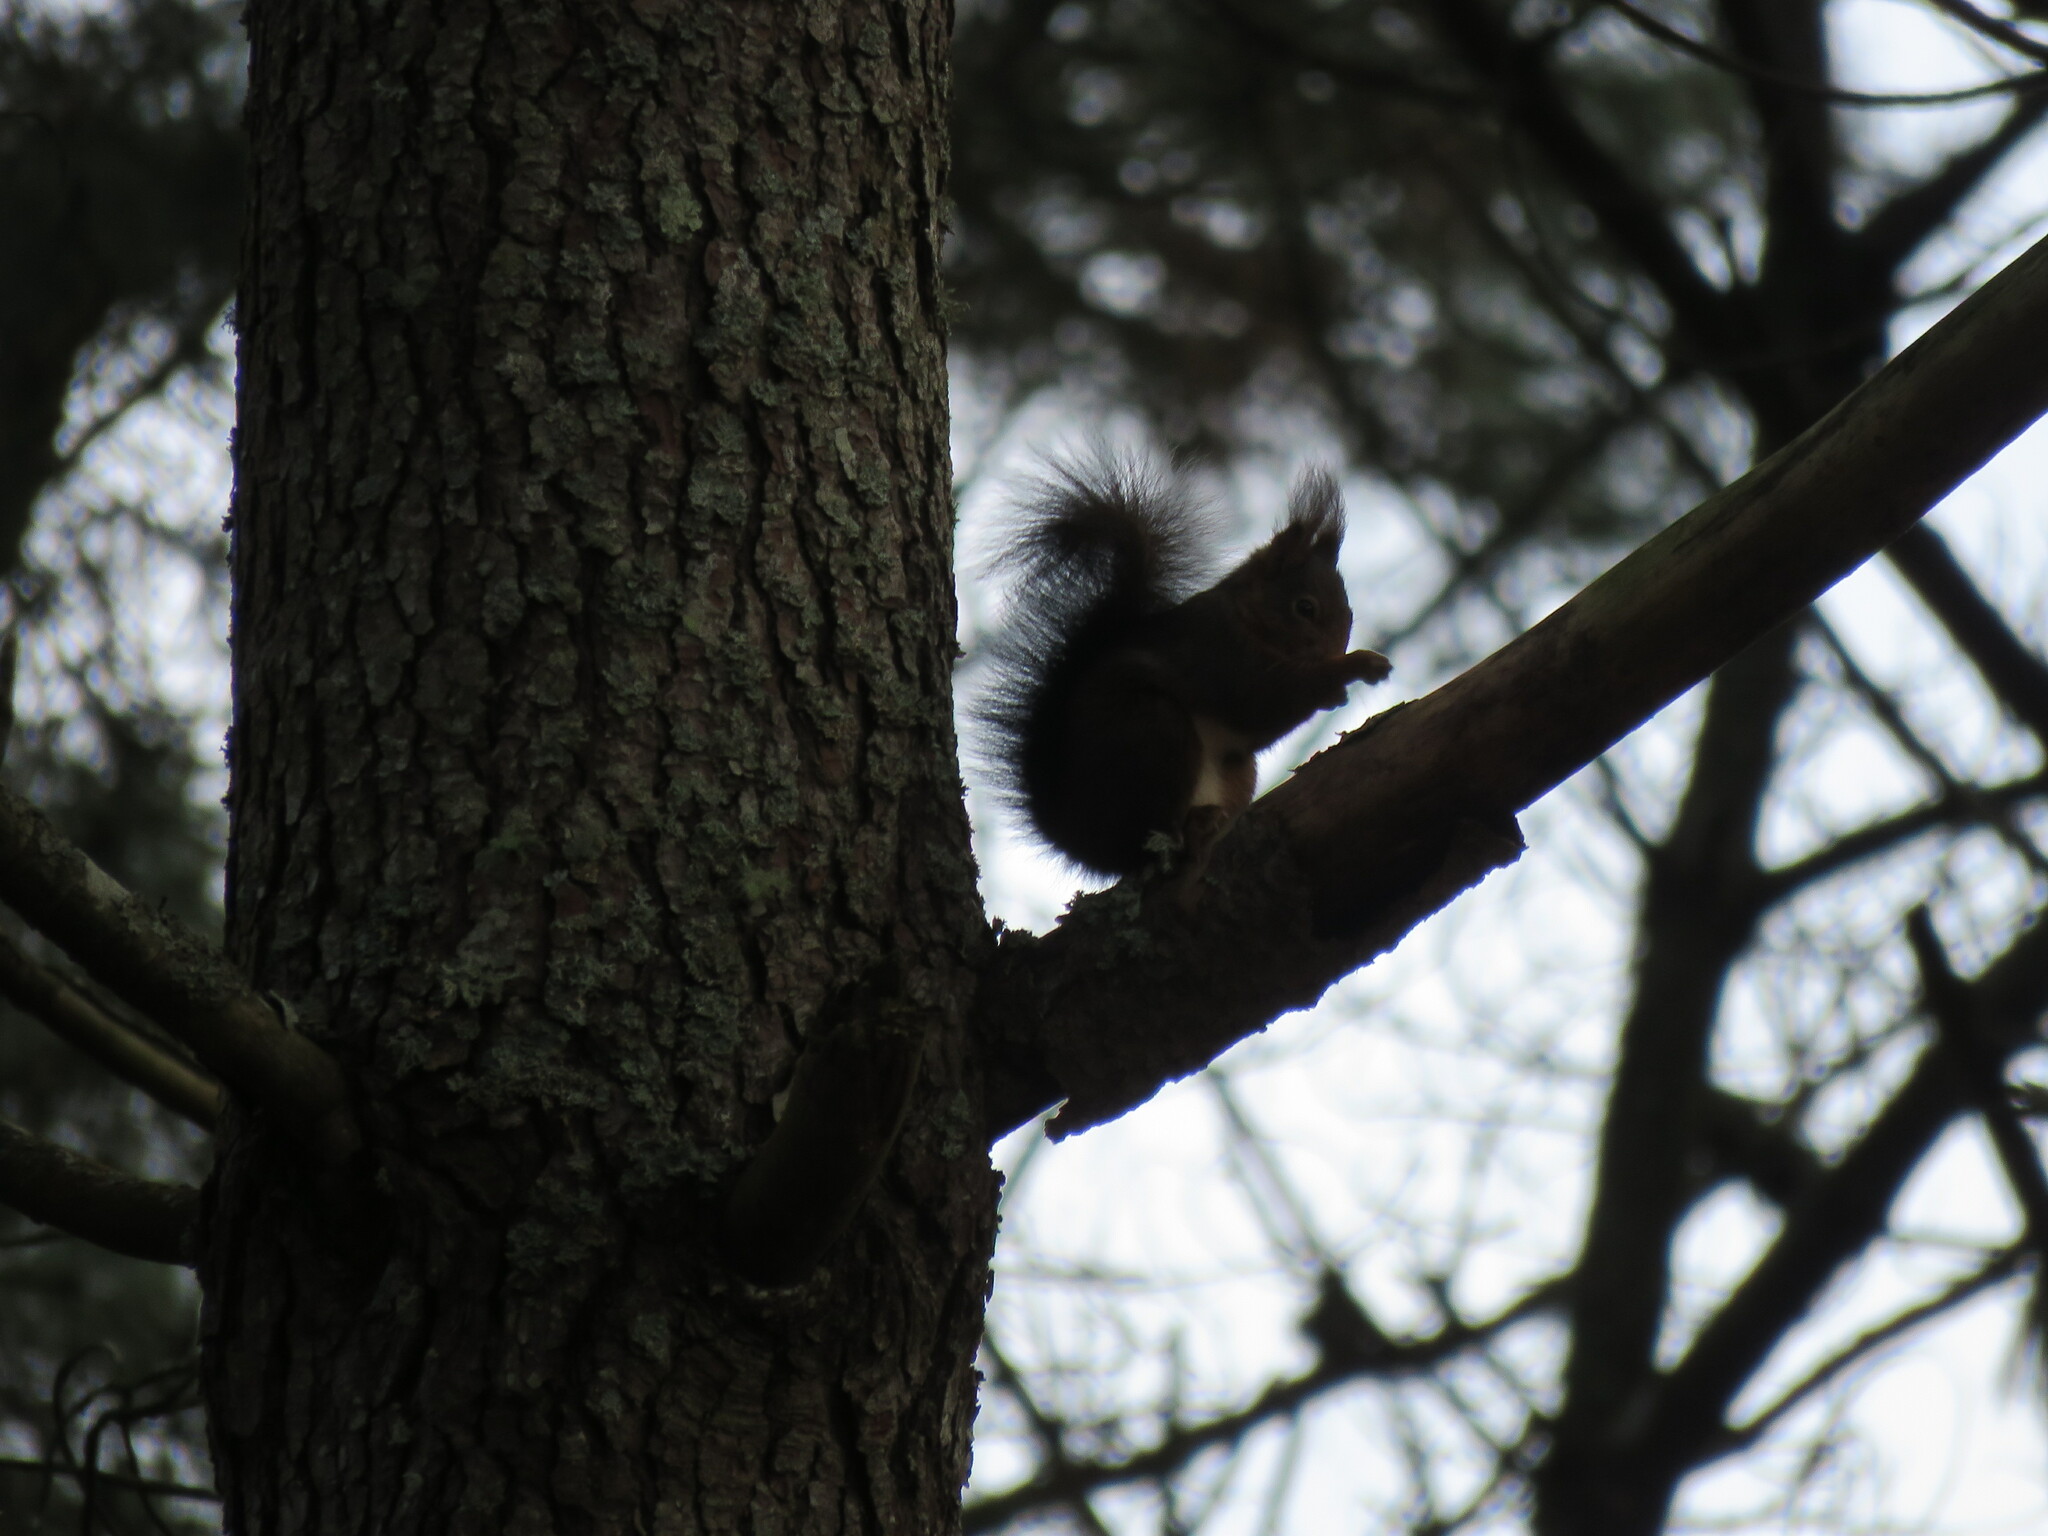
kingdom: Animalia
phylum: Chordata
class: Mammalia
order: Rodentia
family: Sciuridae
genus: Sciurus
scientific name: Sciurus vulgaris
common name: Eurasian red squirrel
